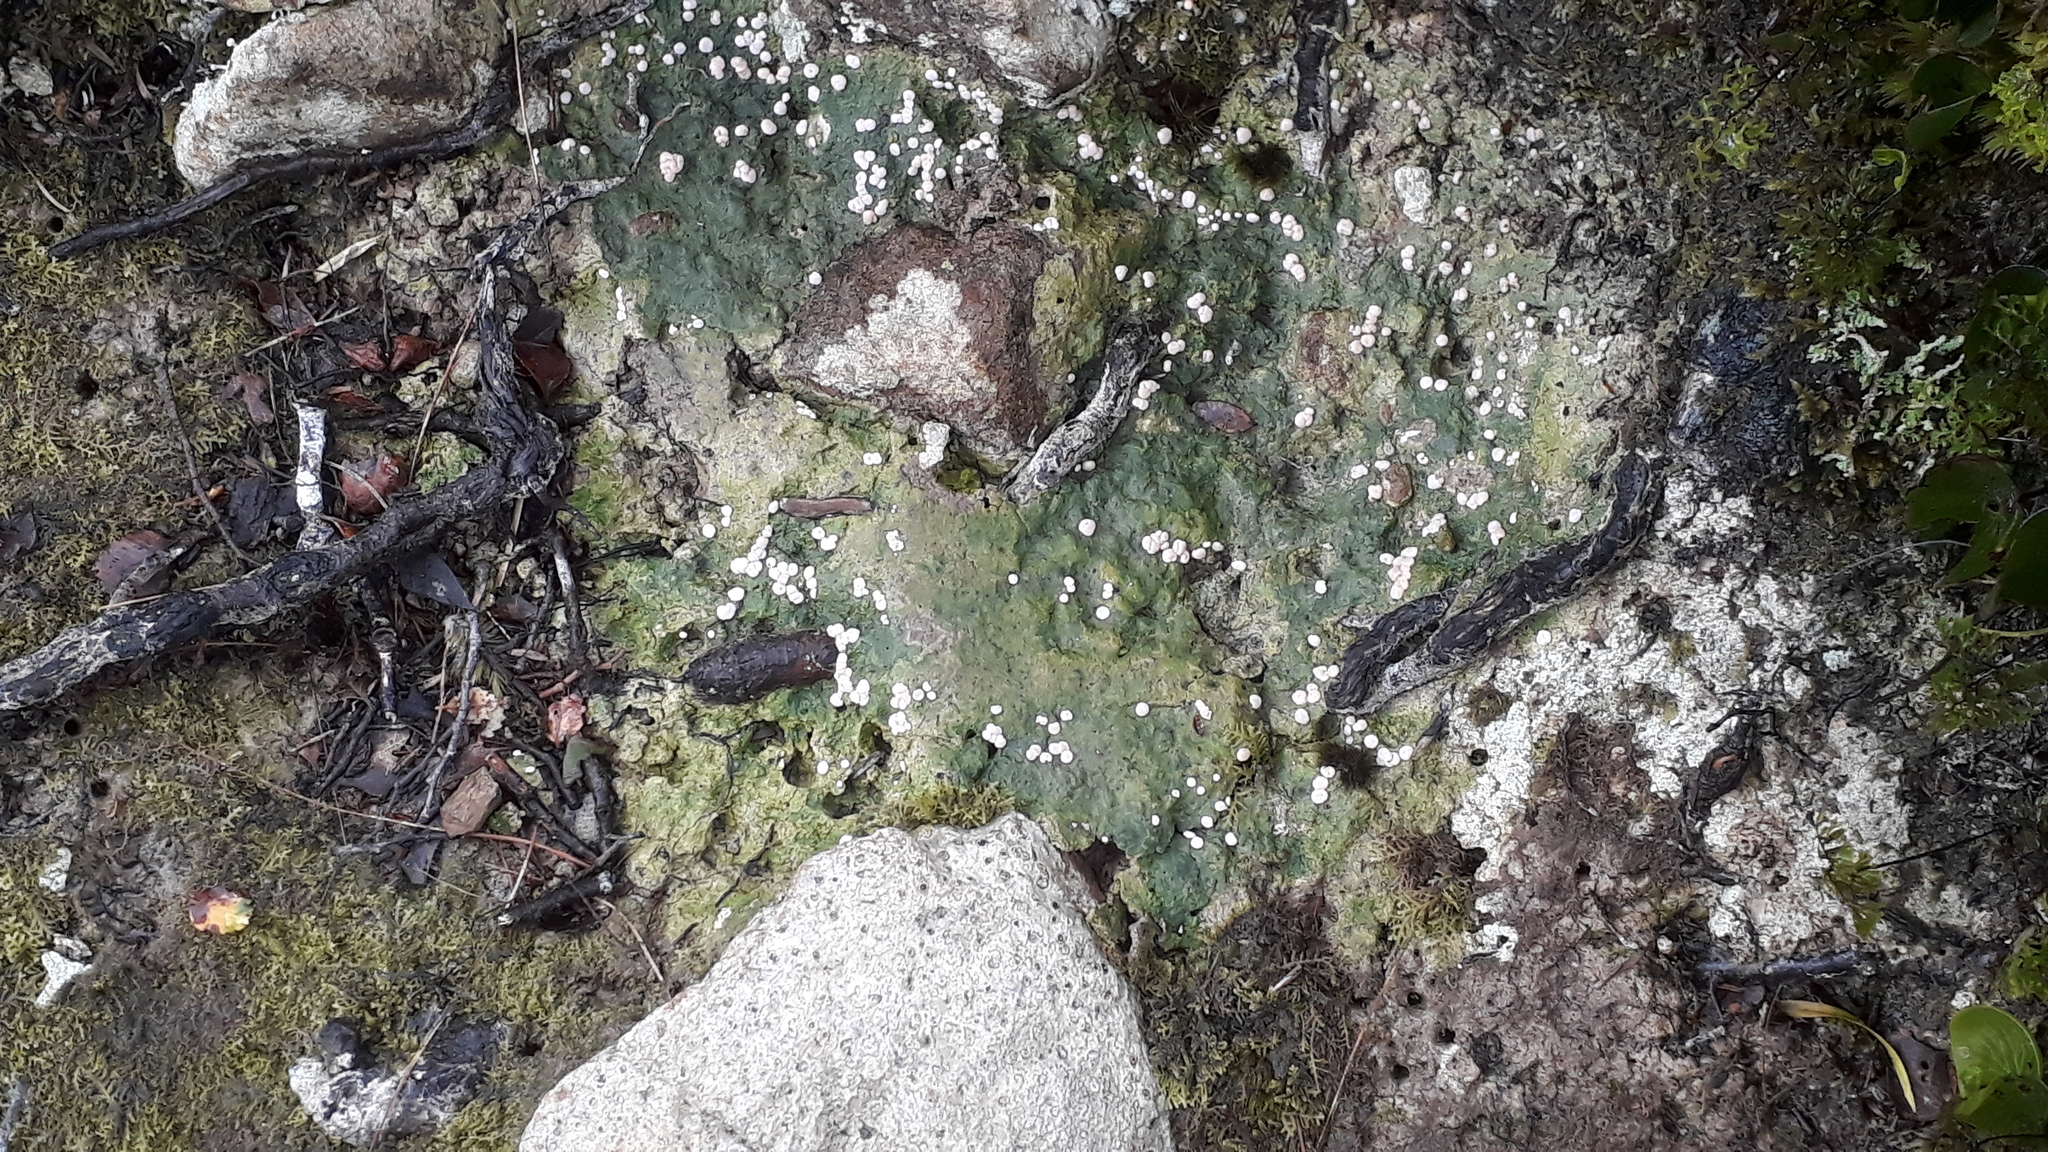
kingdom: Fungi
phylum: Ascomycota
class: Lecanoromycetes
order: Pertusariales
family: Icmadophilaceae
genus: Dibaeis
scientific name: Dibaeis absoluta
